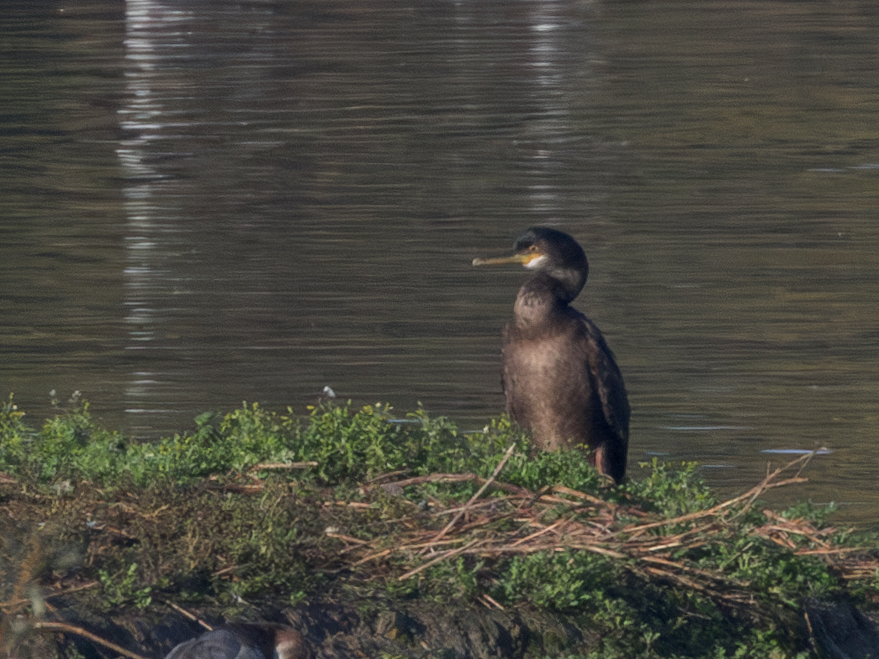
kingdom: Animalia
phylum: Chordata
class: Aves
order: Suliformes
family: Phalacrocoracidae
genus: Phalacrocorax
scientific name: Phalacrocorax aristotelis
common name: European shag
